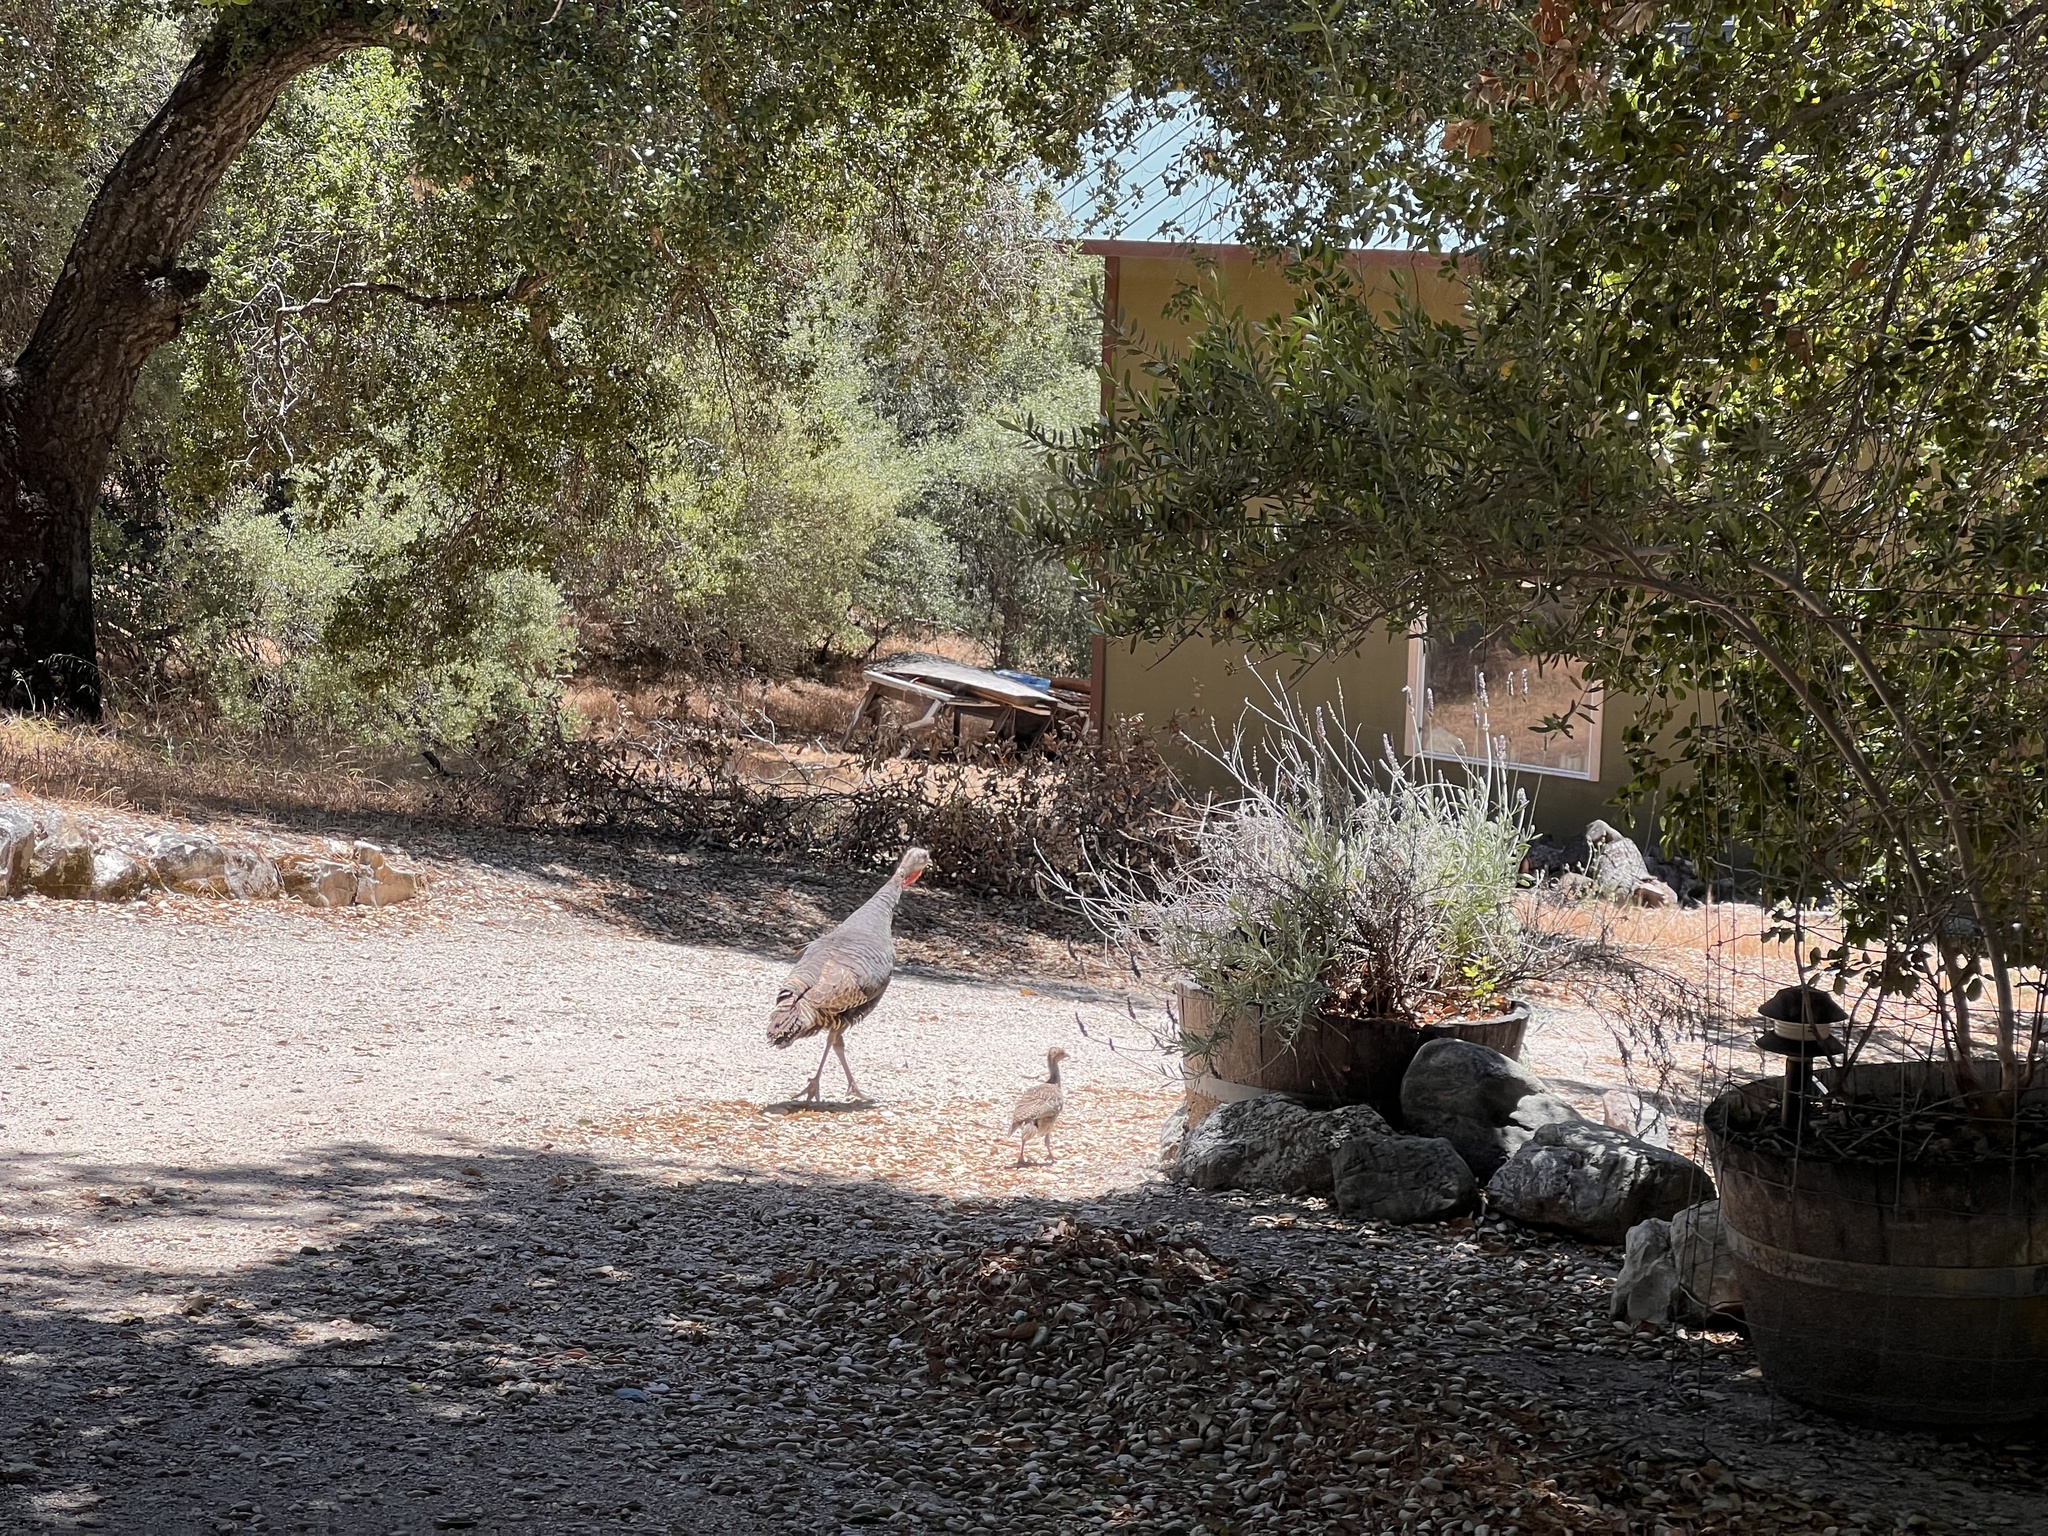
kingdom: Animalia
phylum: Chordata
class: Aves
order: Galliformes
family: Phasianidae
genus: Meleagris
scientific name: Meleagris gallopavo
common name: Wild turkey
